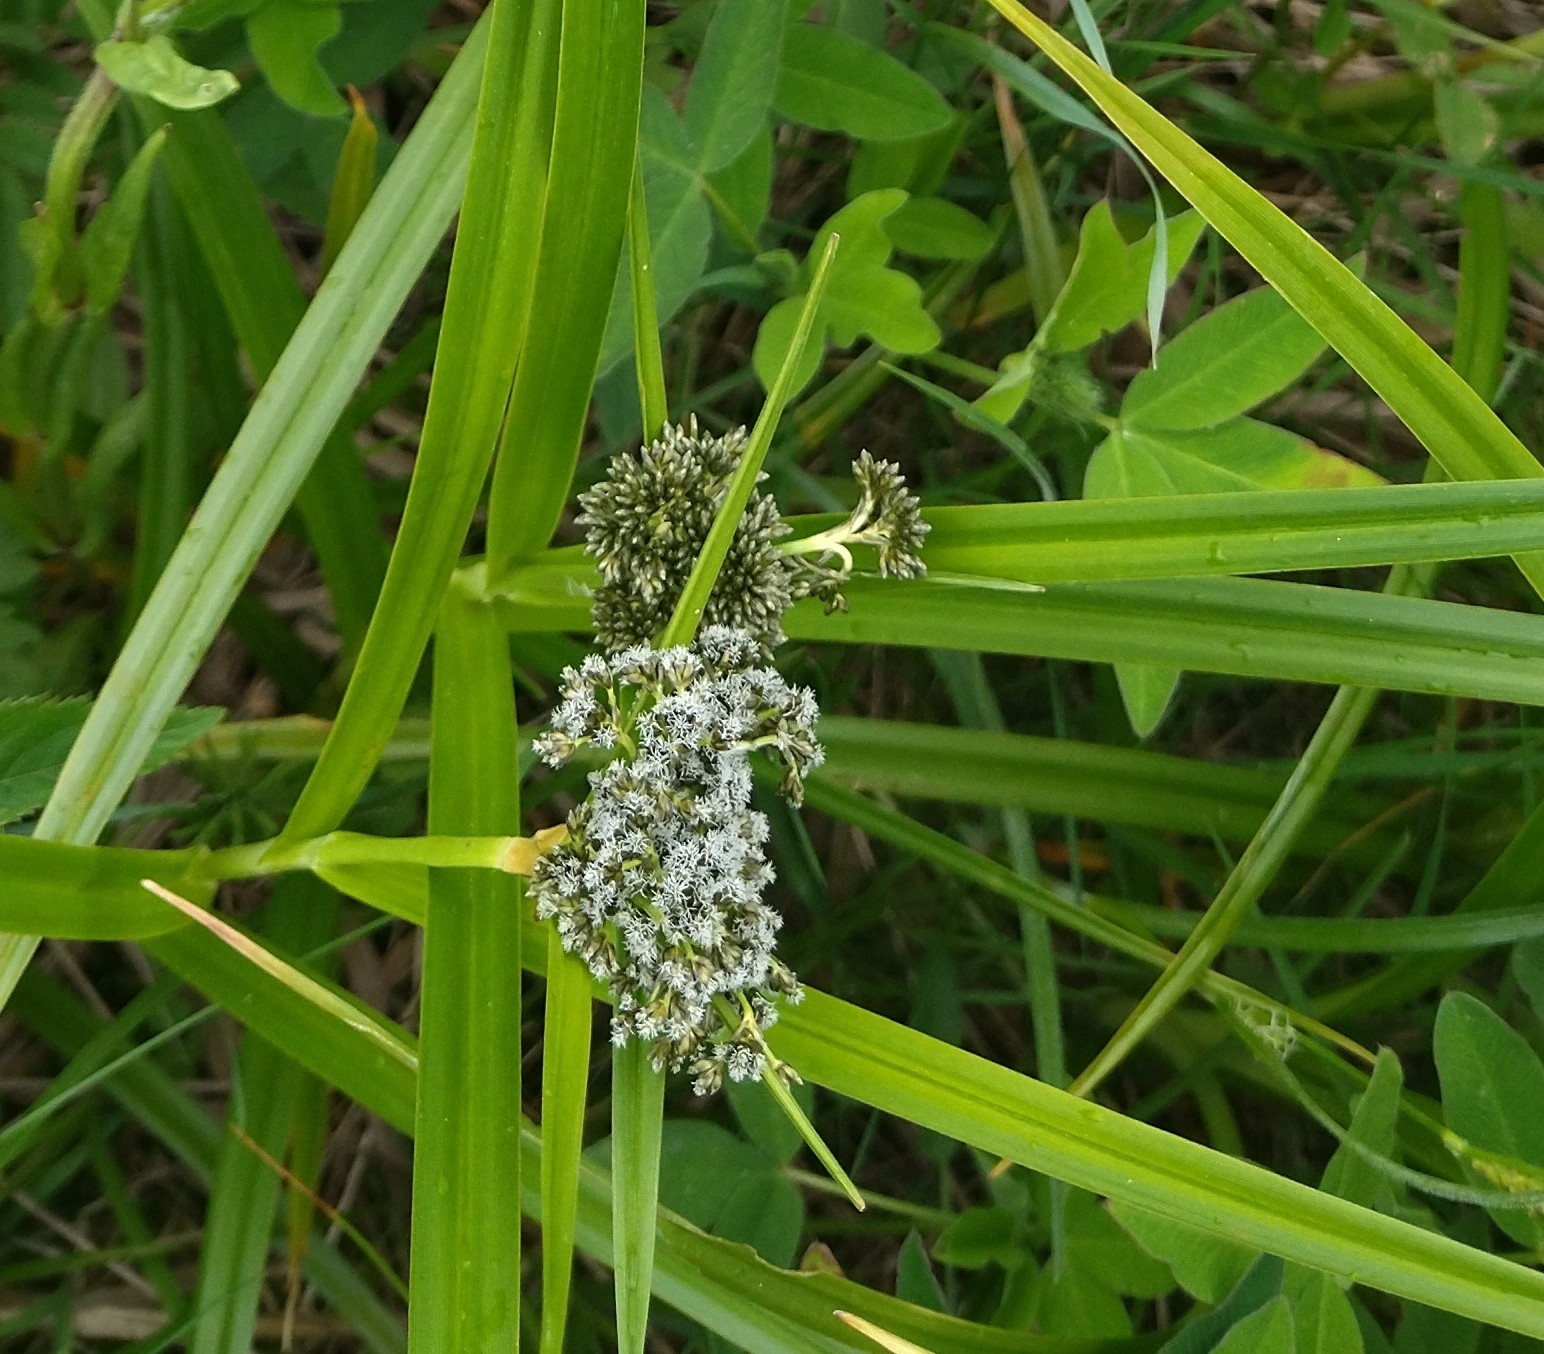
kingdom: Plantae
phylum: Tracheophyta
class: Liliopsida
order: Poales
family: Cyperaceae
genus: Scirpus
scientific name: Scirpus sylvaticus
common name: Wood club-rush
